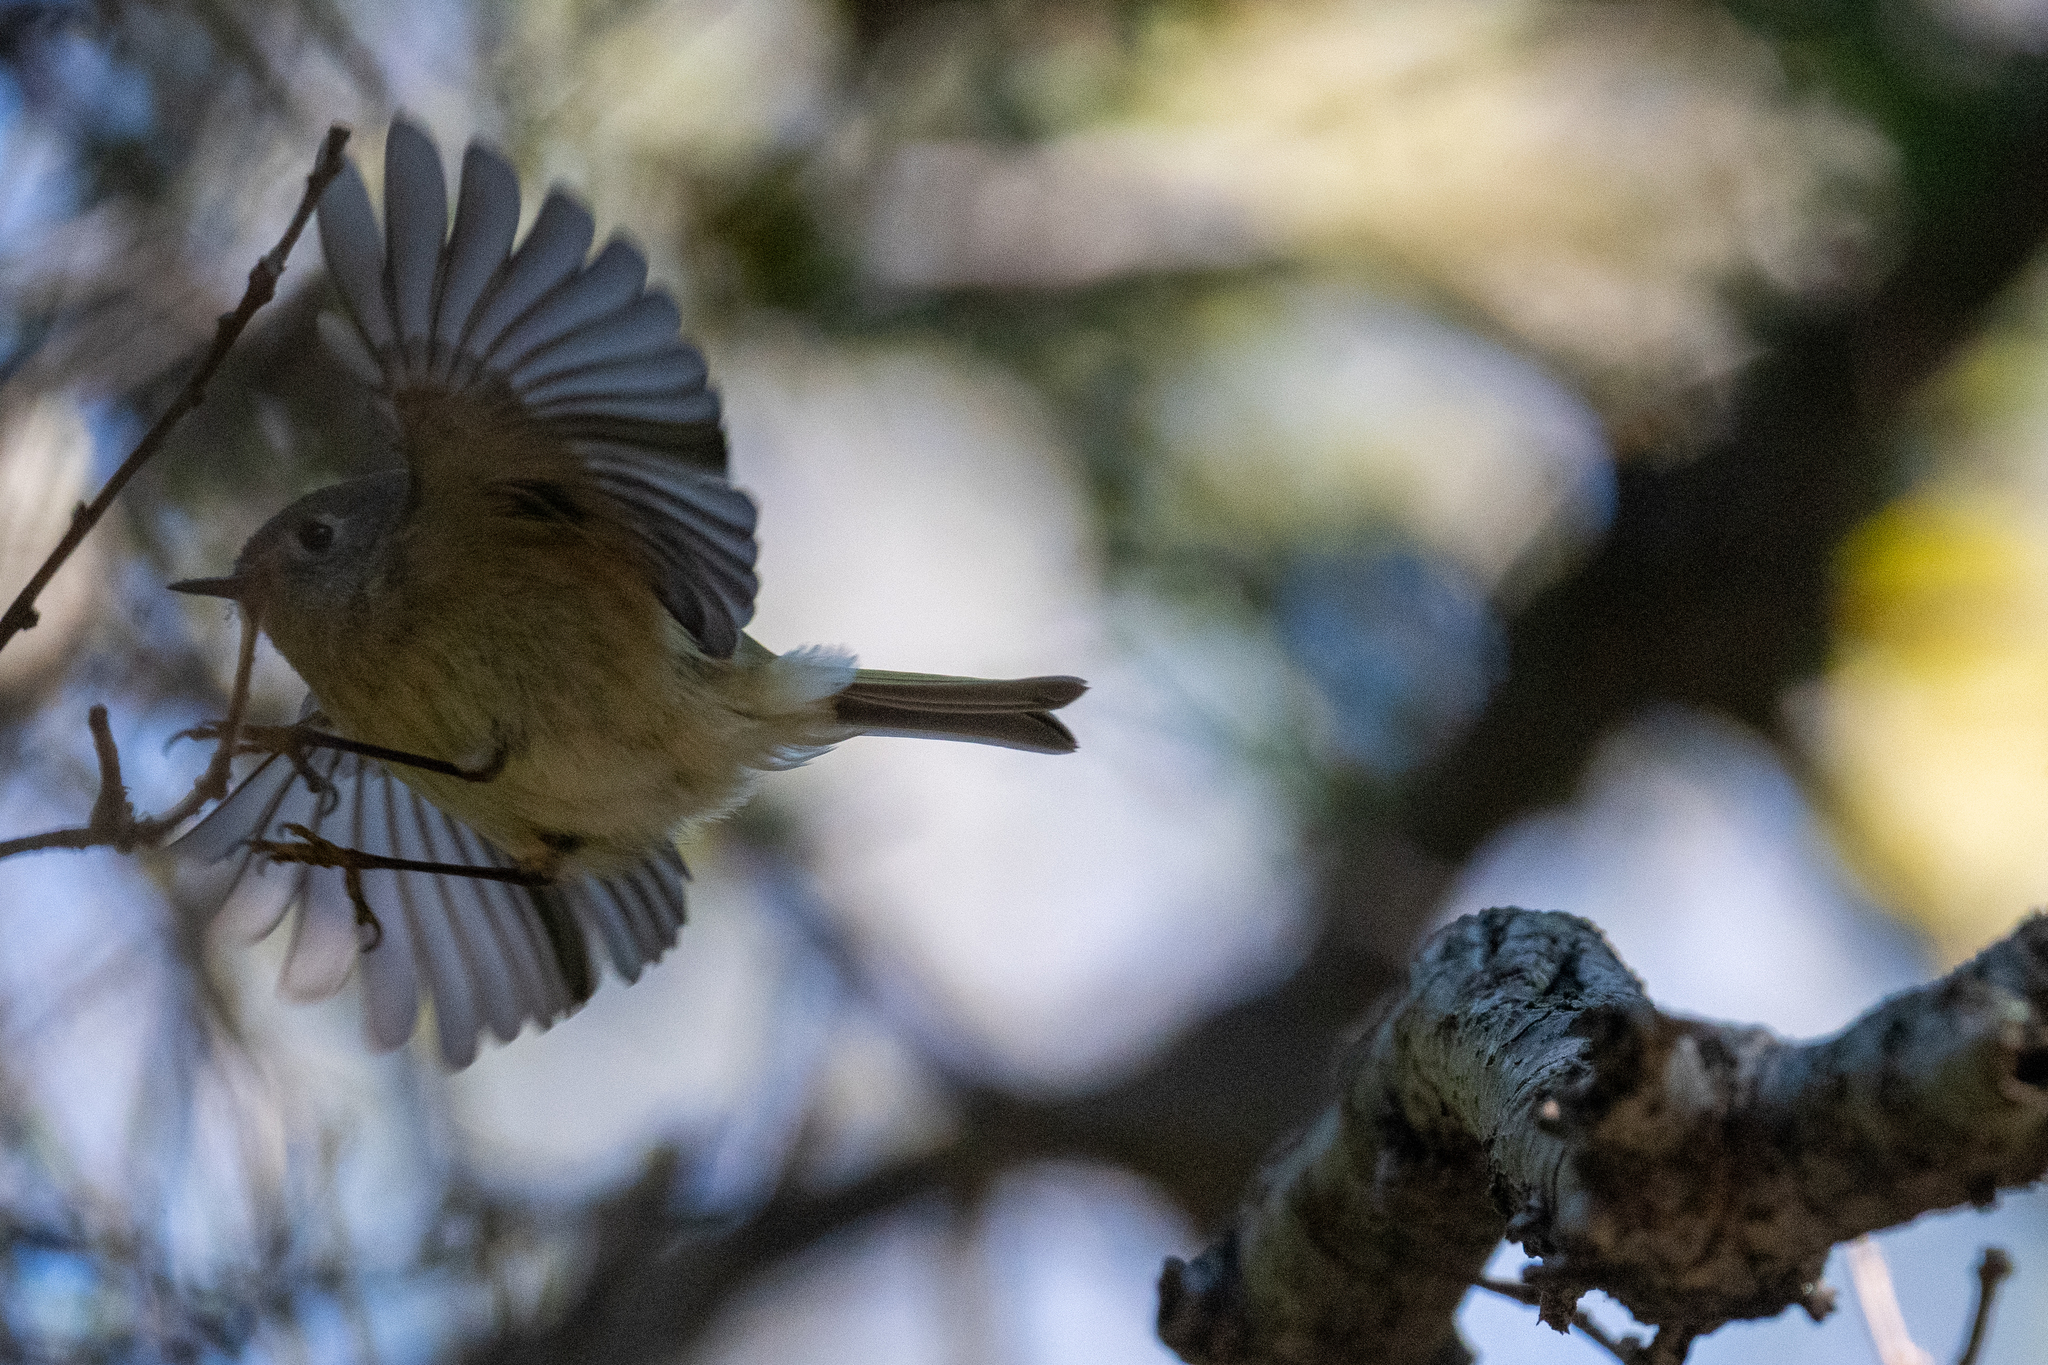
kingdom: Animalia
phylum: Chordata
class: Aves
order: Passeriformes
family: Regulidae
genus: Regulus
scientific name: Regulus calendula
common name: Ruby-crowned kinglet
